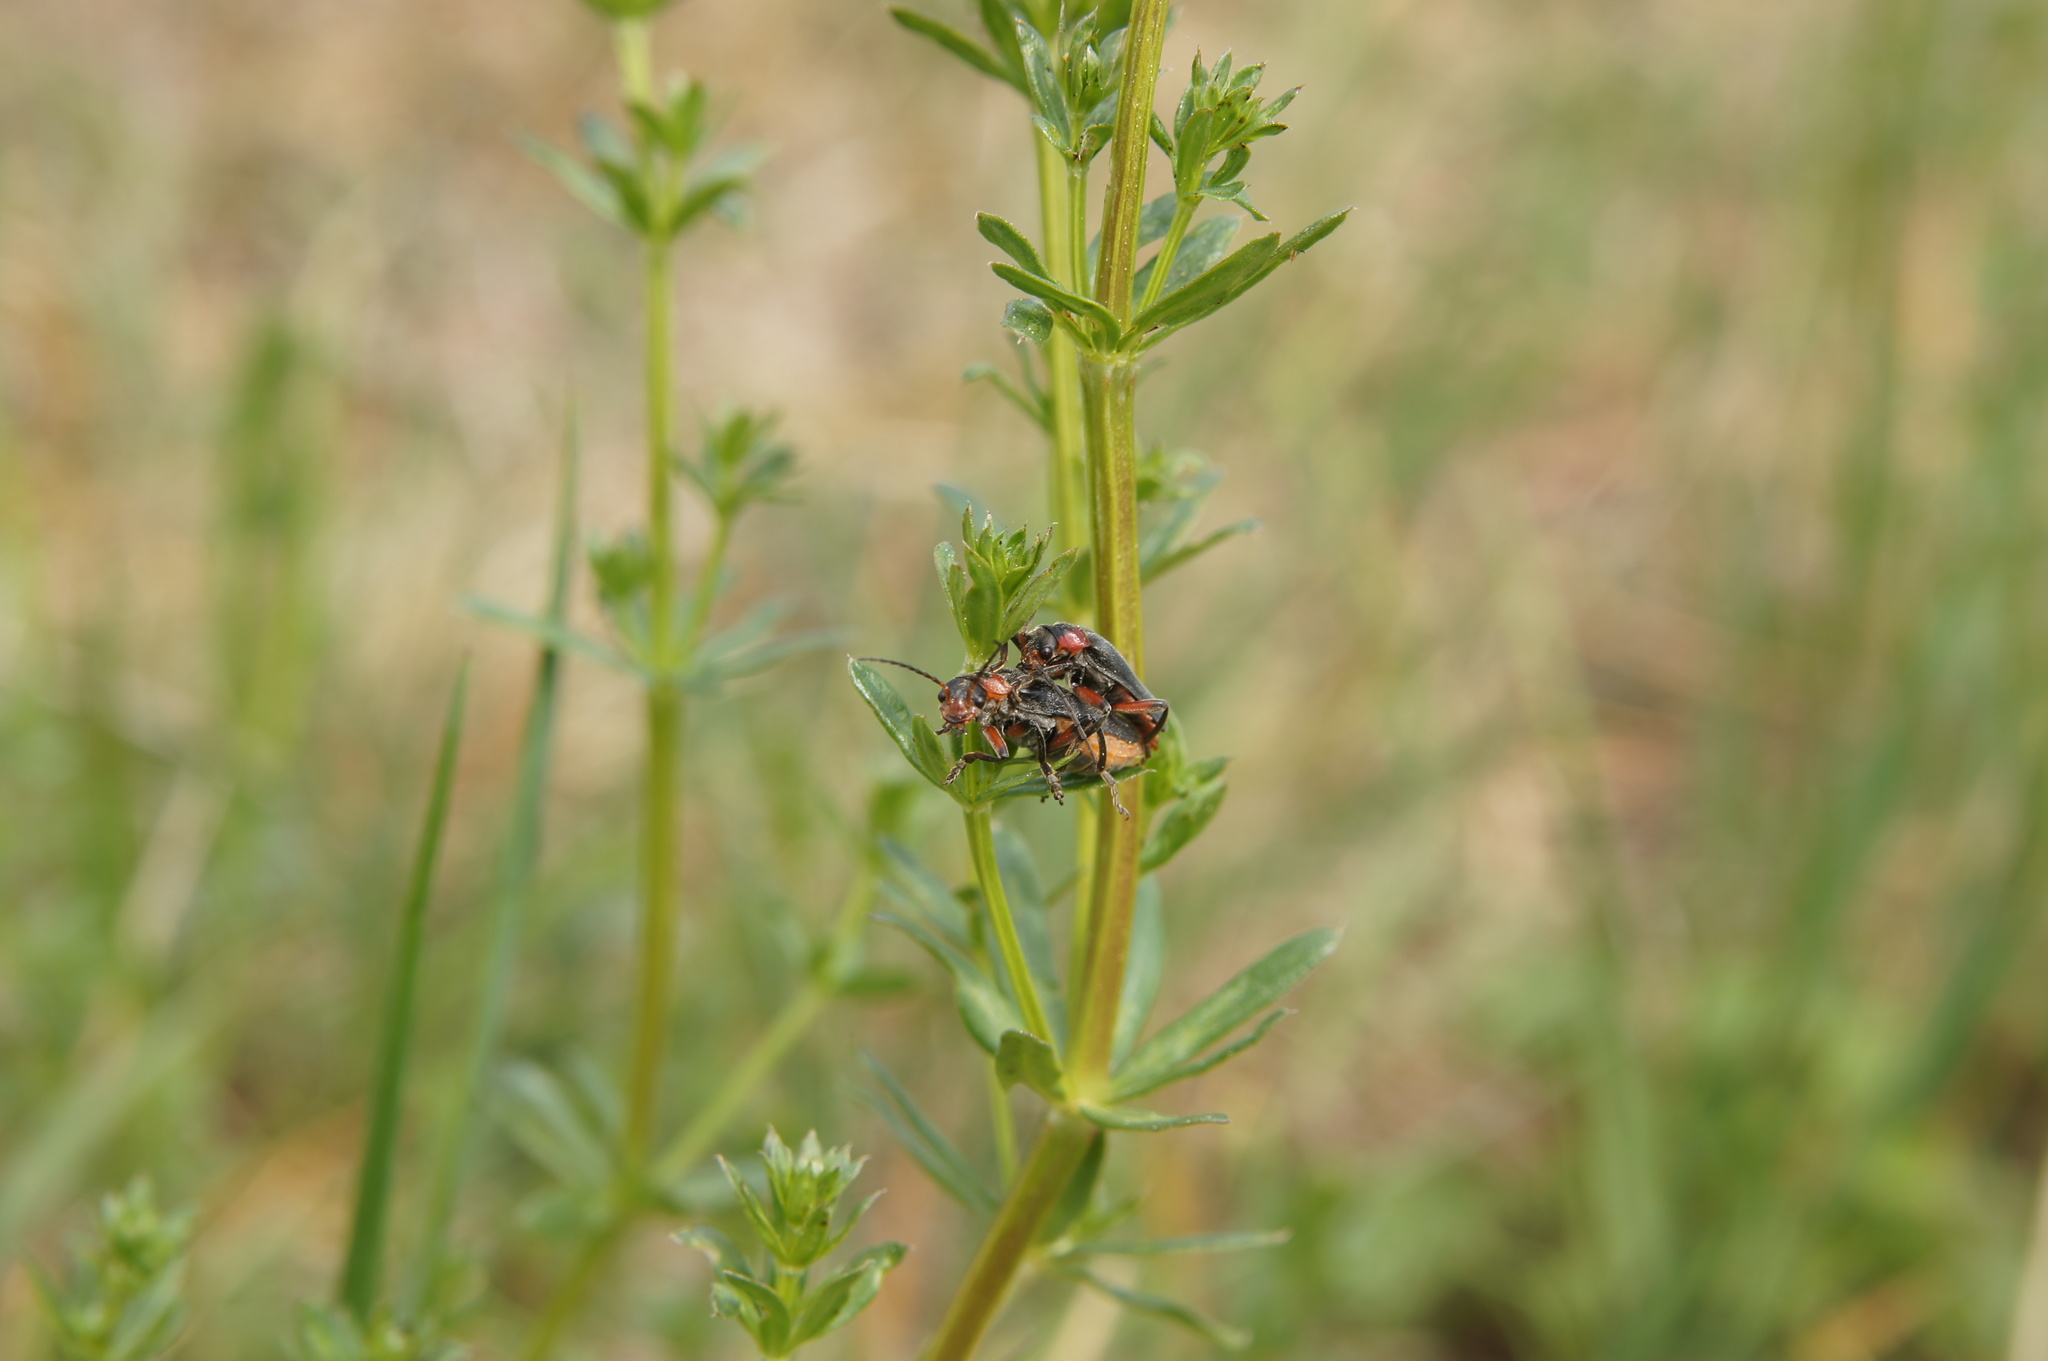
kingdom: Animalia
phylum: Arthropoda
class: Insecta
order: Coleoptera
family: Cantharidae
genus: Cantharis
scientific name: Cantharis rustica
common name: Soldier beetle
